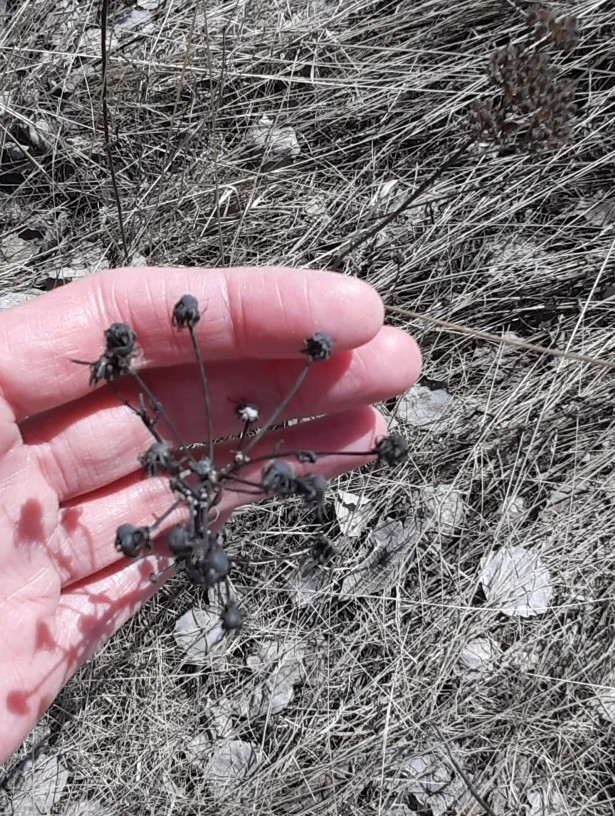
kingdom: Plantae
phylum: Tracheophyta
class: Magnoliopsida
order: Asterales
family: Asteraceae
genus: Hieracium
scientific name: Hieracium umbellatum
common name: Northern hawkweed
